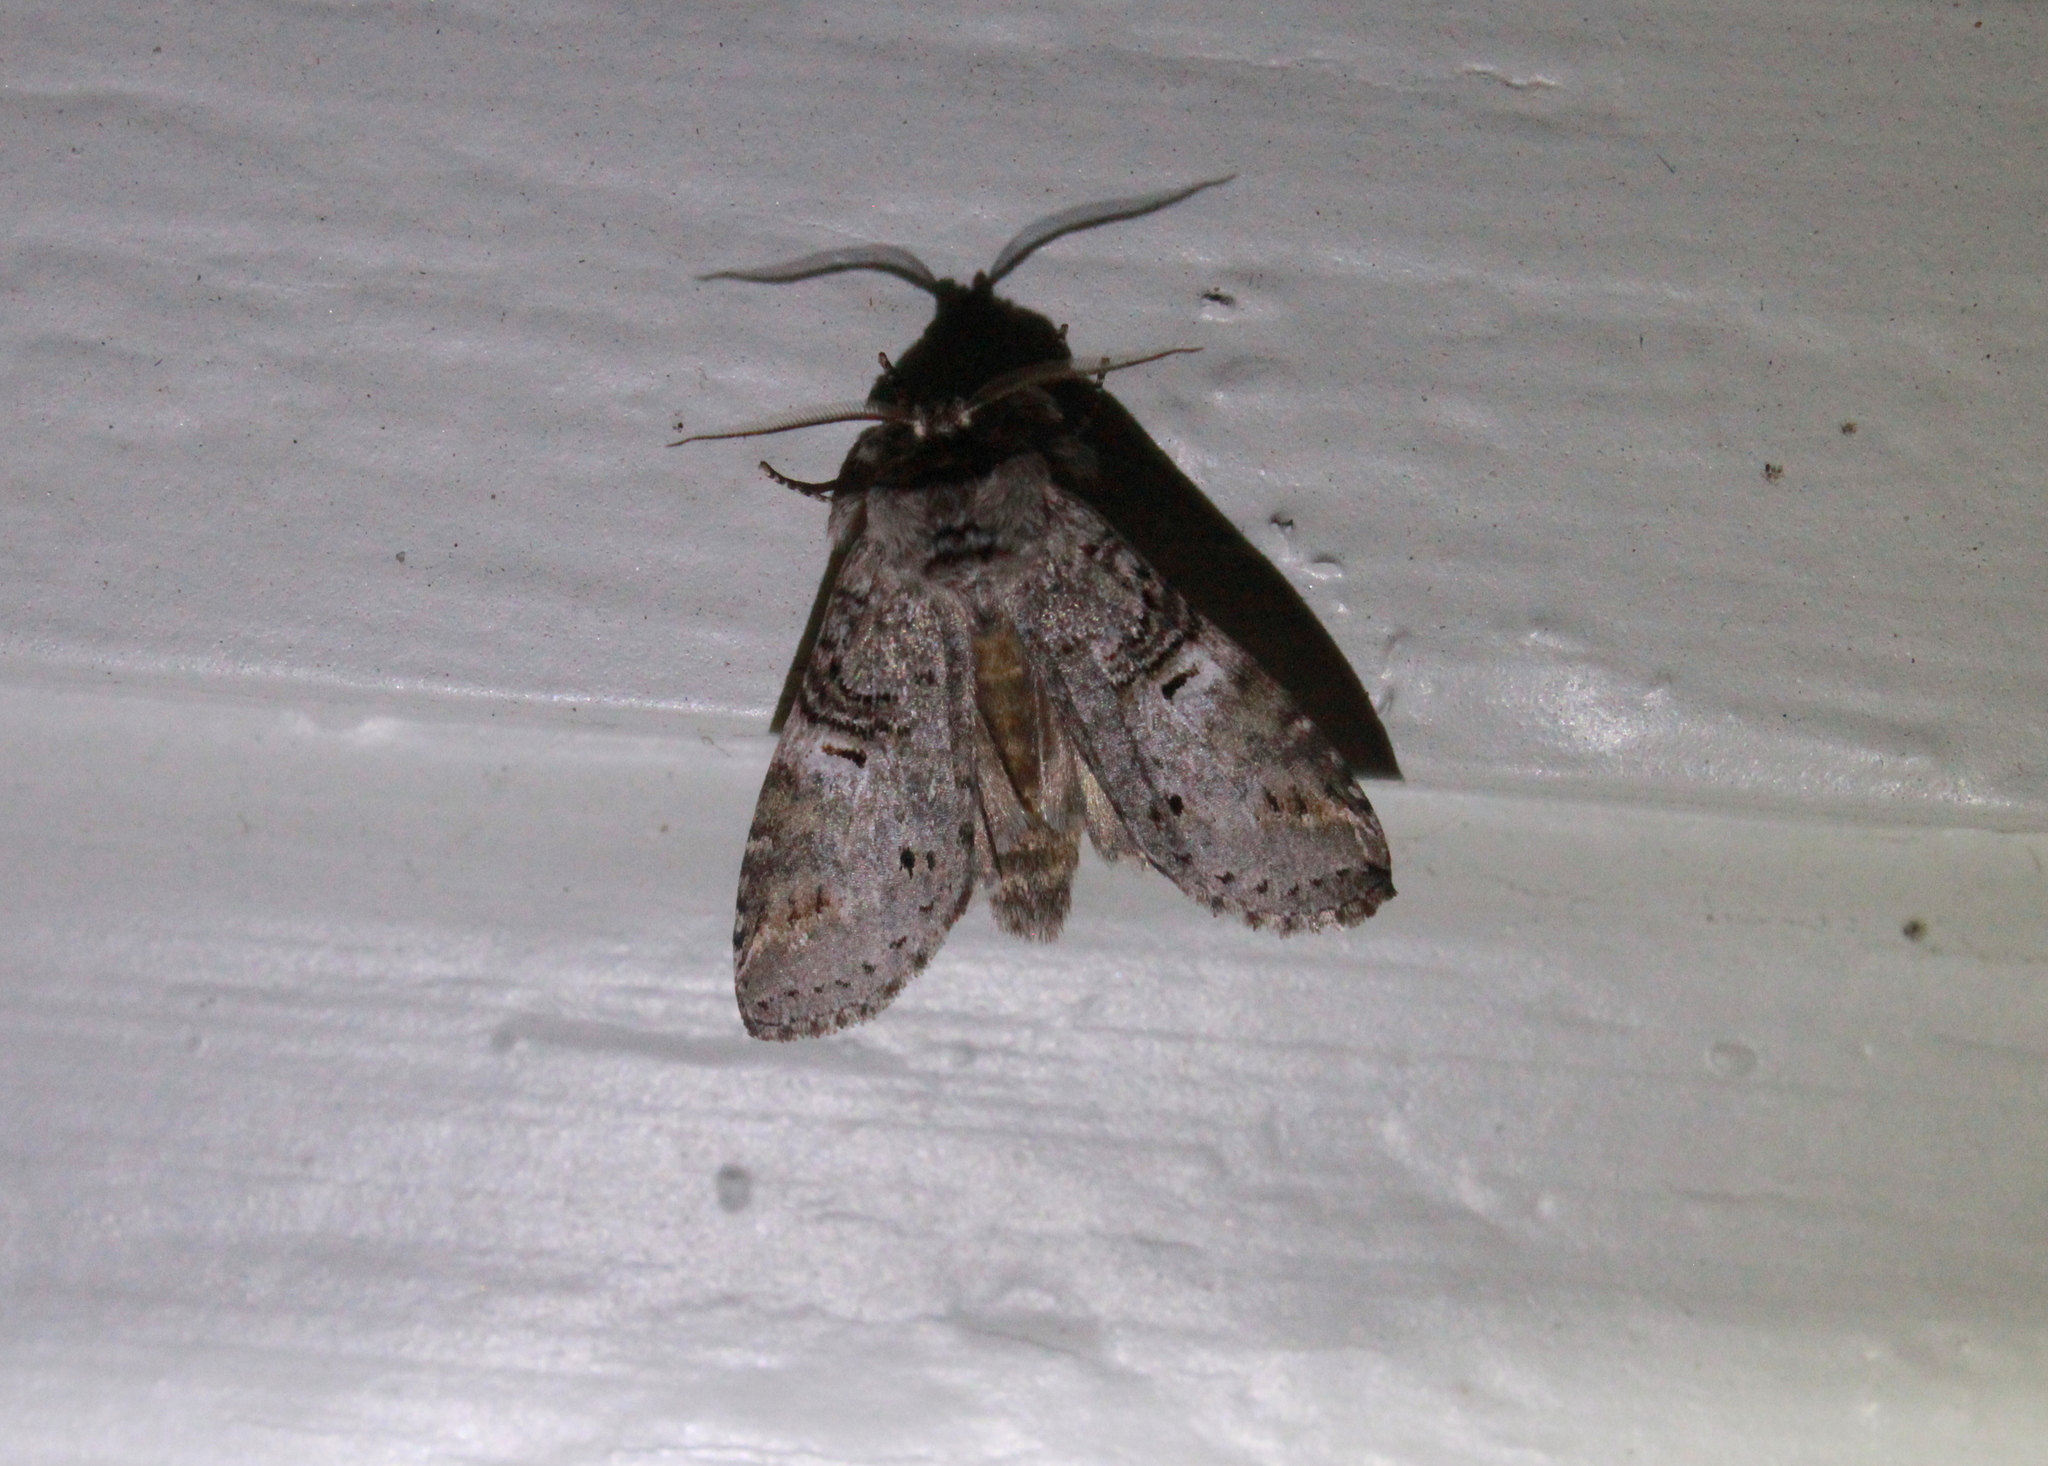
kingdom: Animalia
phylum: Arthropoda
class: Insecta
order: Lepidoptera
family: Notodontidae
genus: Ellida
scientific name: Ellida caniplaga
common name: Linden prominent
